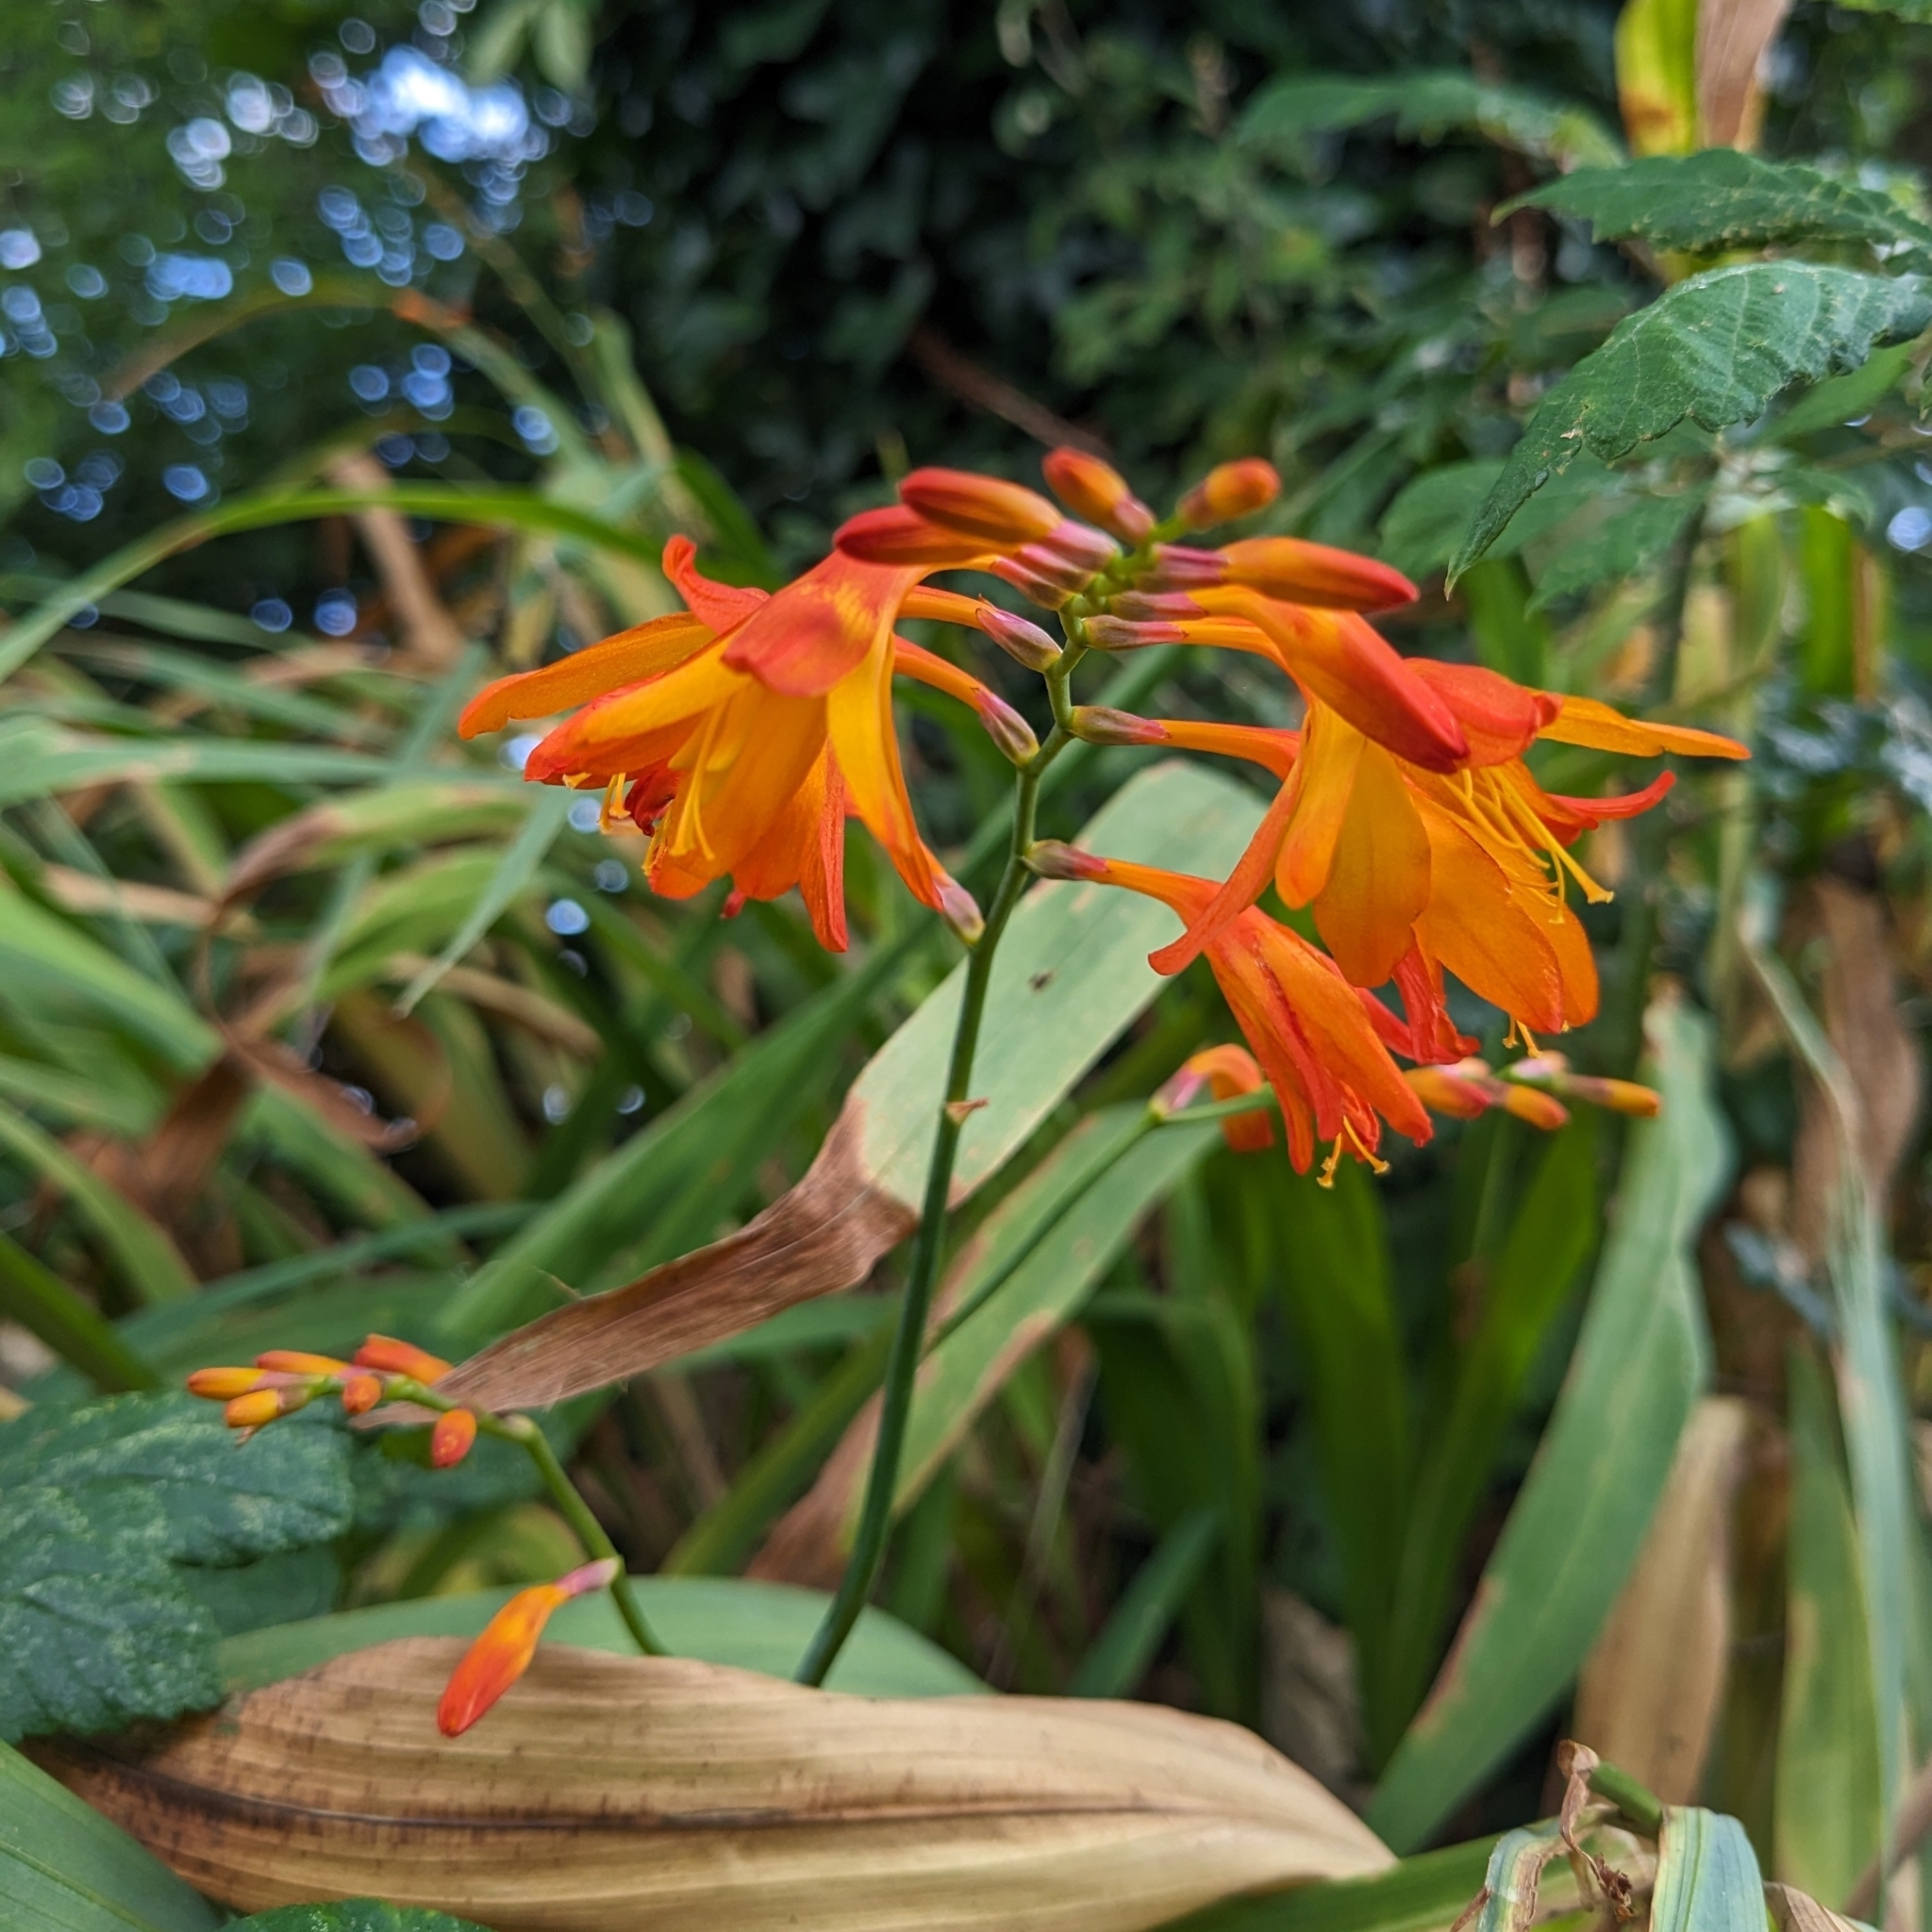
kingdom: Plantae
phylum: Tracheophyta
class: Liliopsida
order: Asparagales
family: Iridaceae
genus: Crocosmia
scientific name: Crocosmia crocosmiiflora
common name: Montbretia
